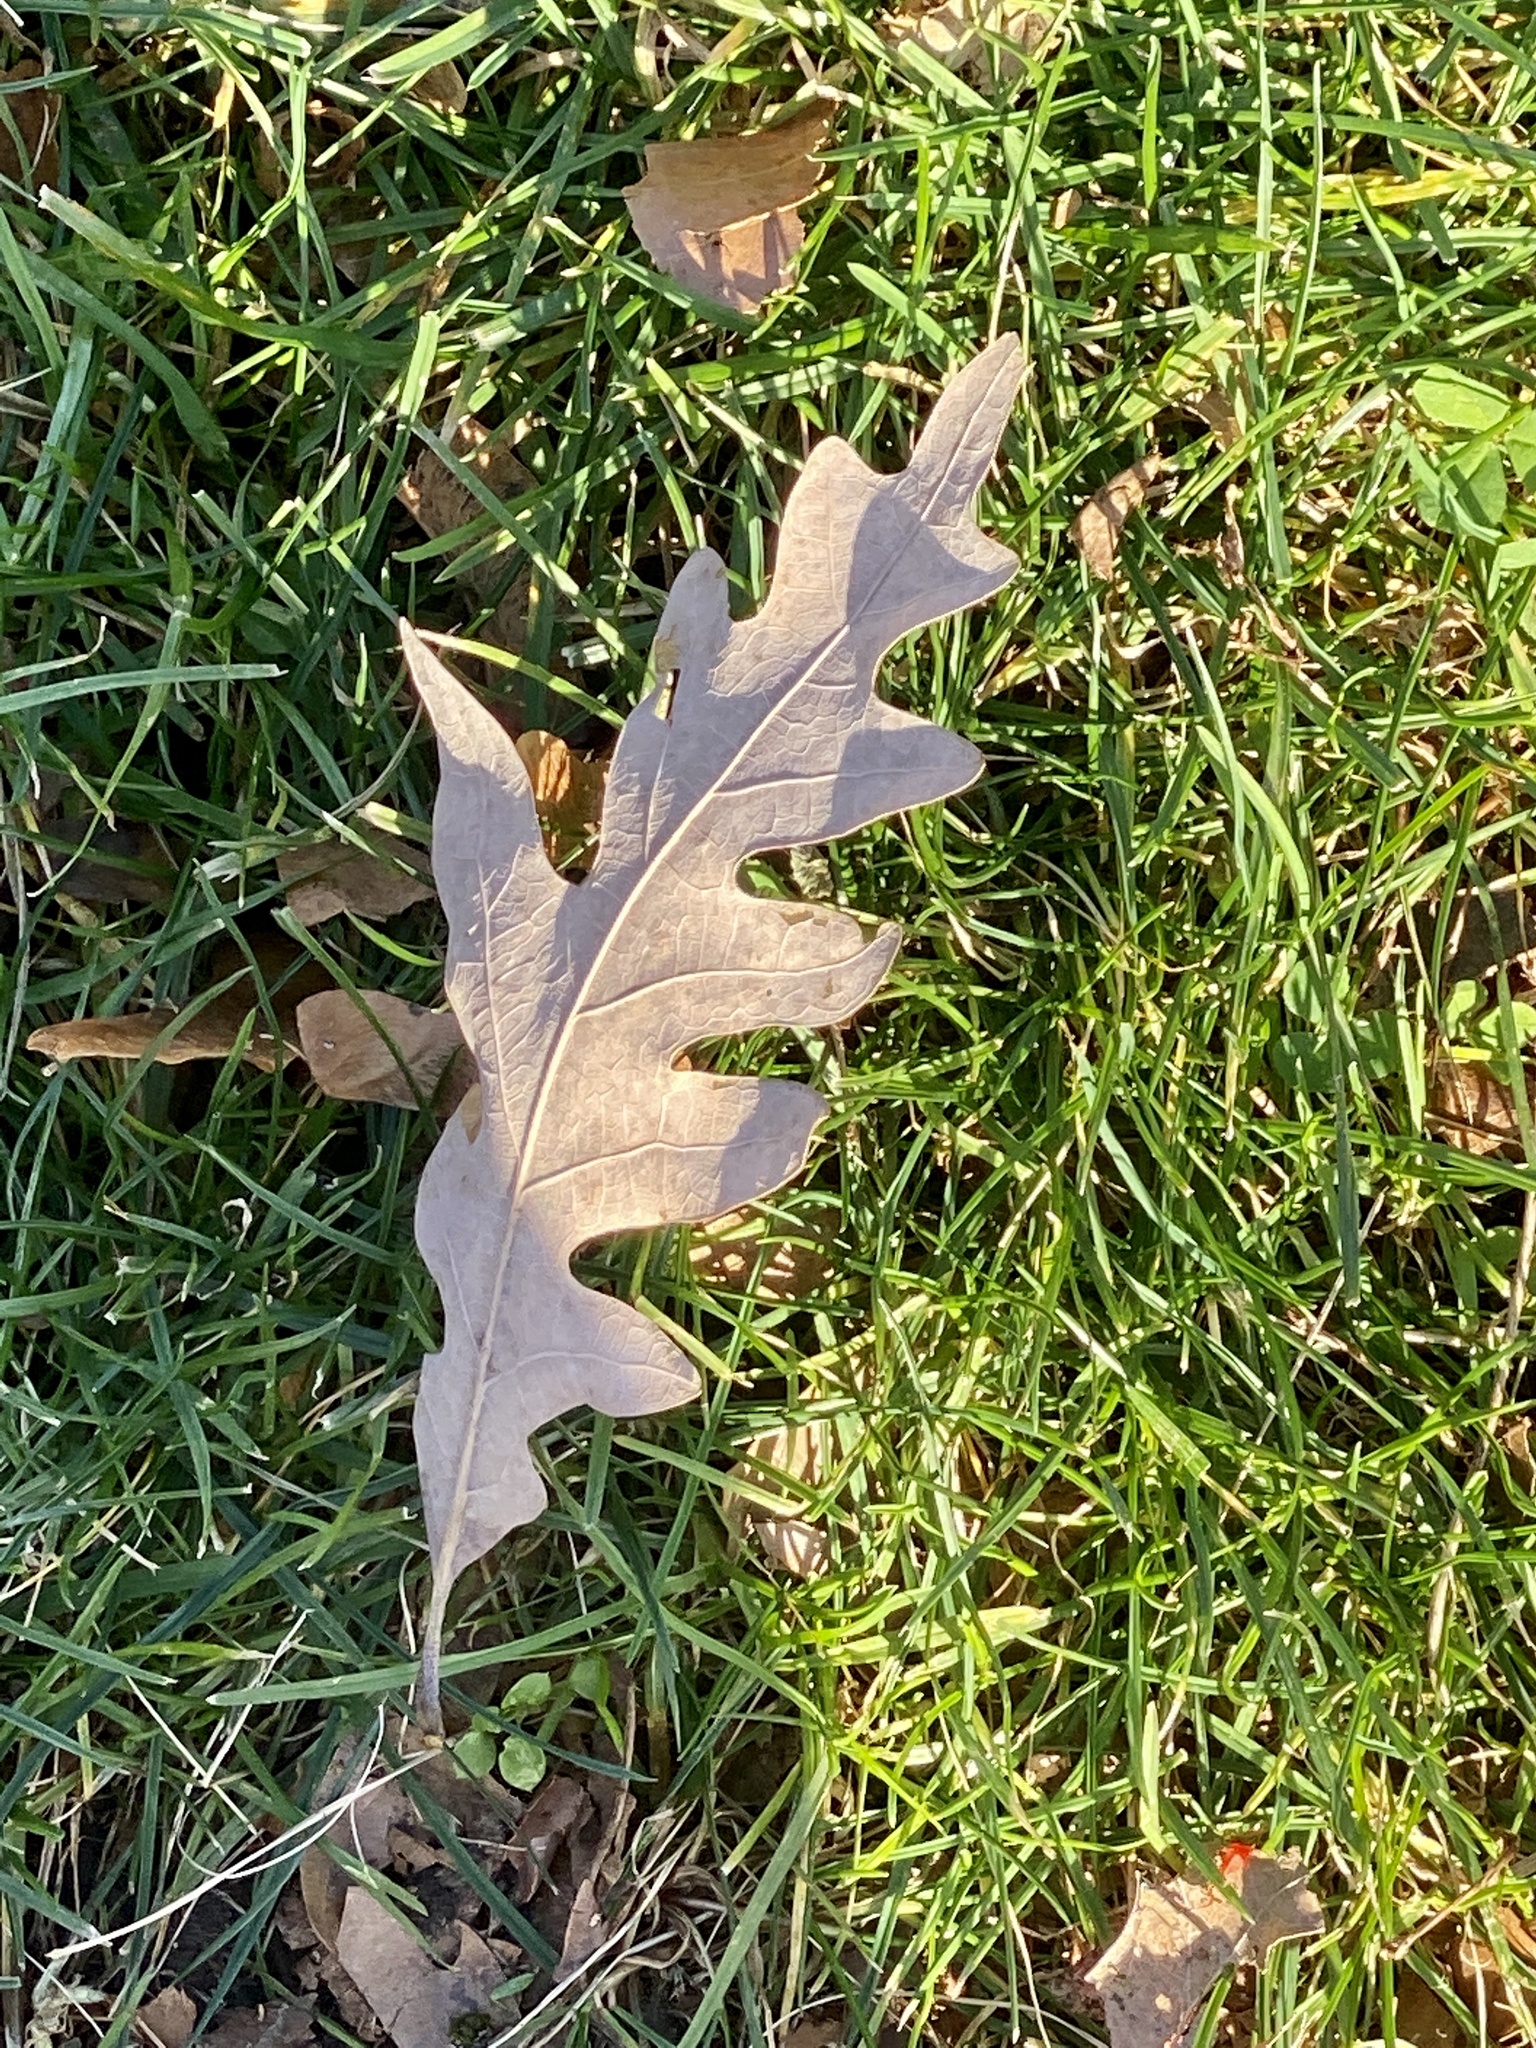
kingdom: Plantae
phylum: Tracheophyta
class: Magnoliopsida
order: Fagales
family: Fagaceae
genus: Quercus
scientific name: Quercus alba
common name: White oak
